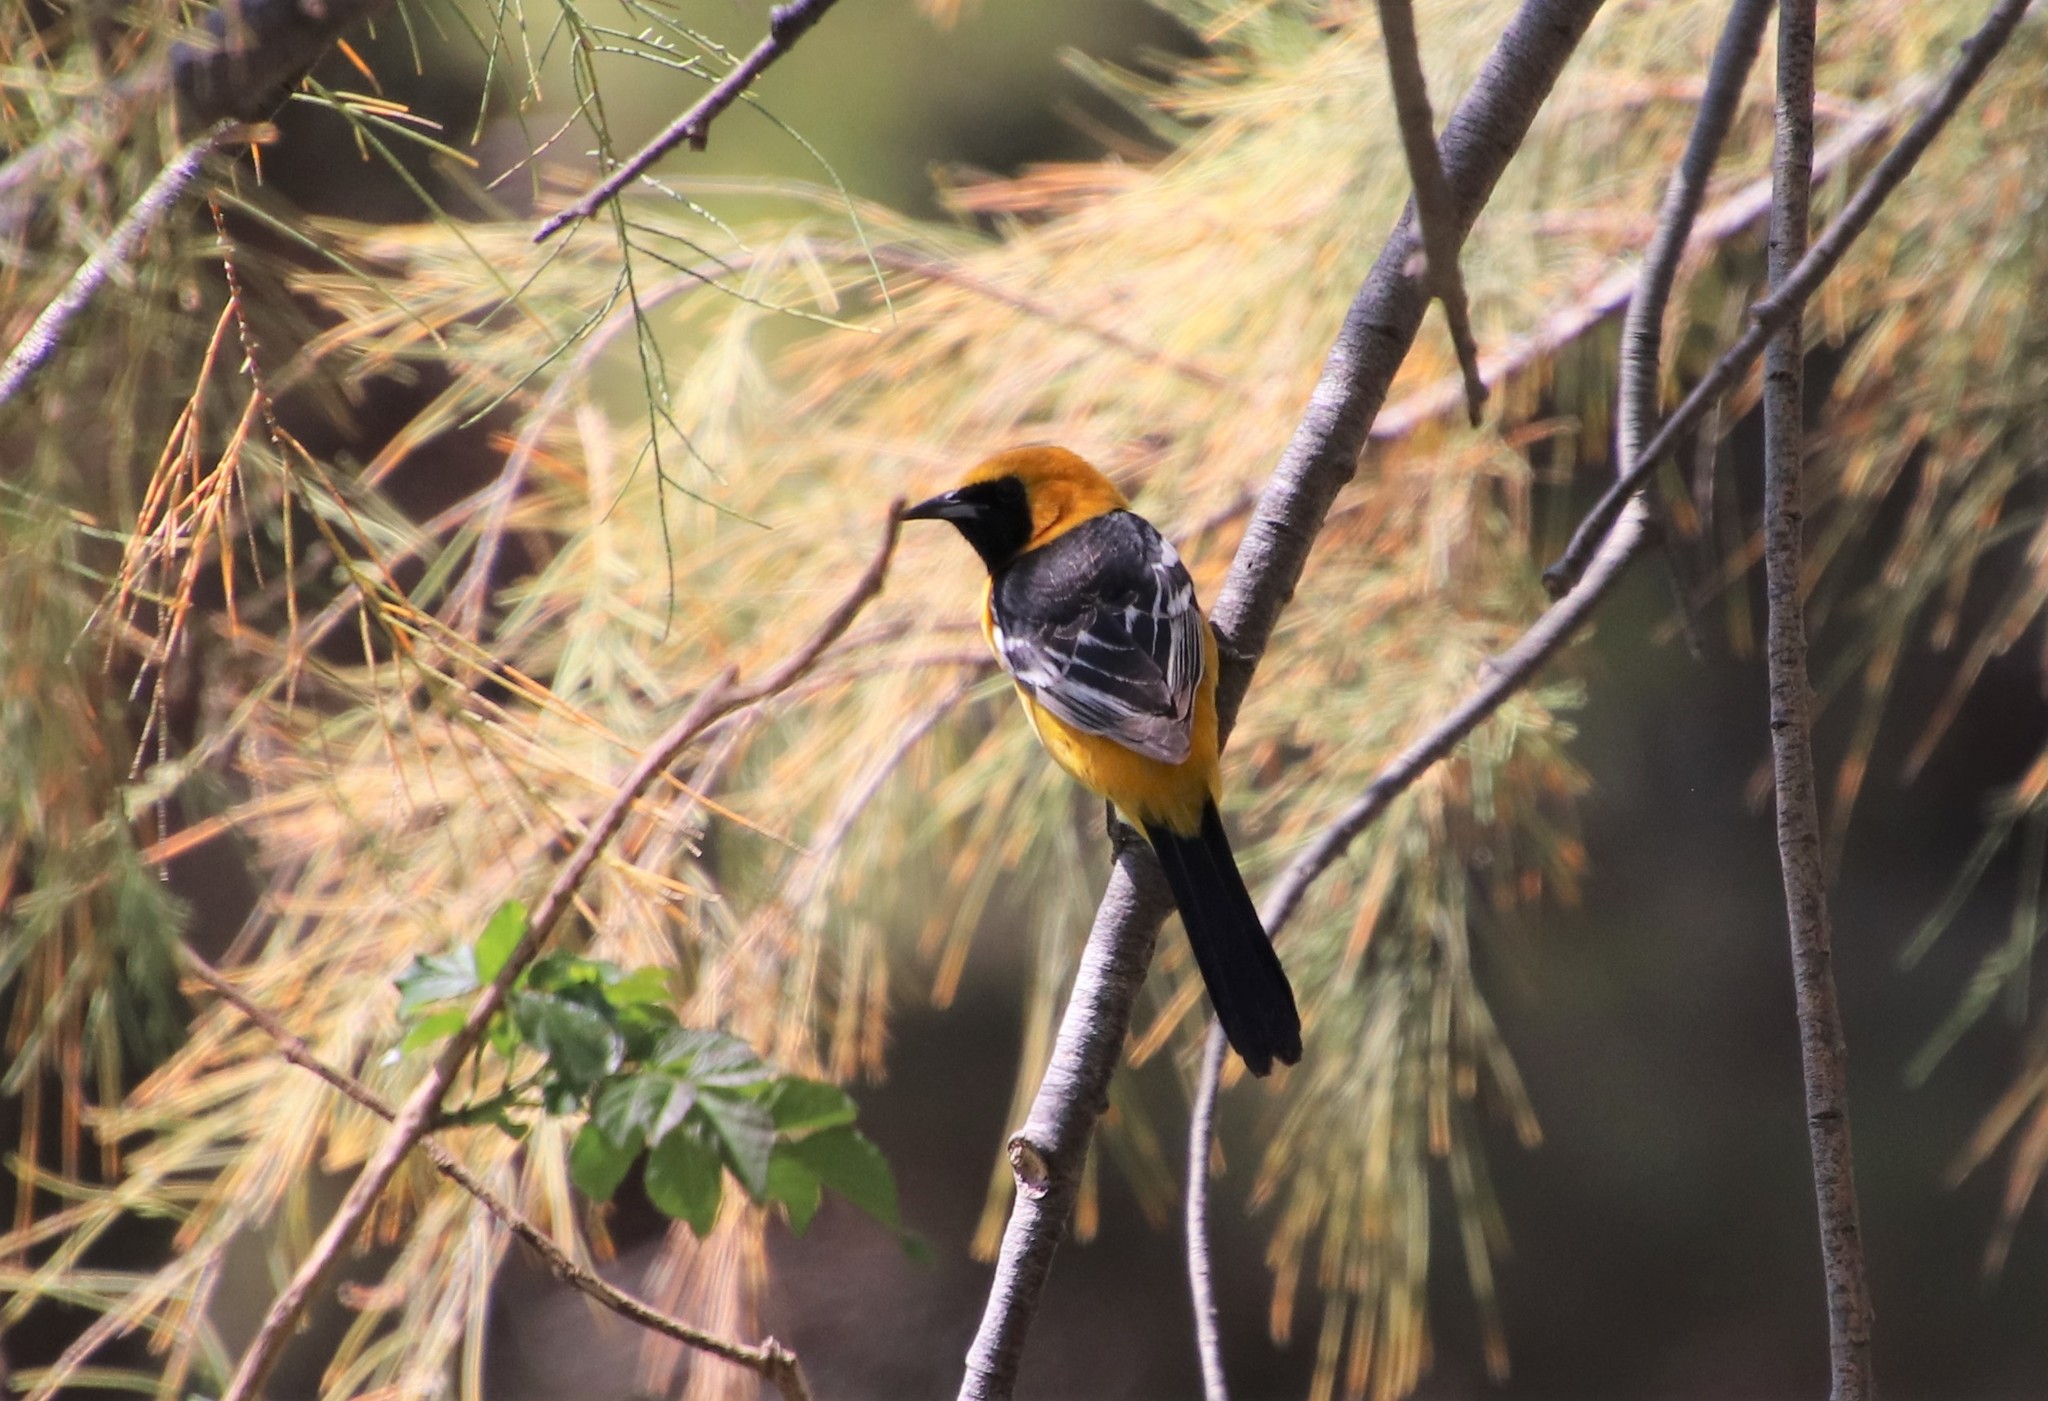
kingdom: Animalia
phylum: Chordata
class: Aves
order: Passeriformes
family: Icteridae
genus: Icterus
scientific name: Icterus cucullatus
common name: Hooded oriole
